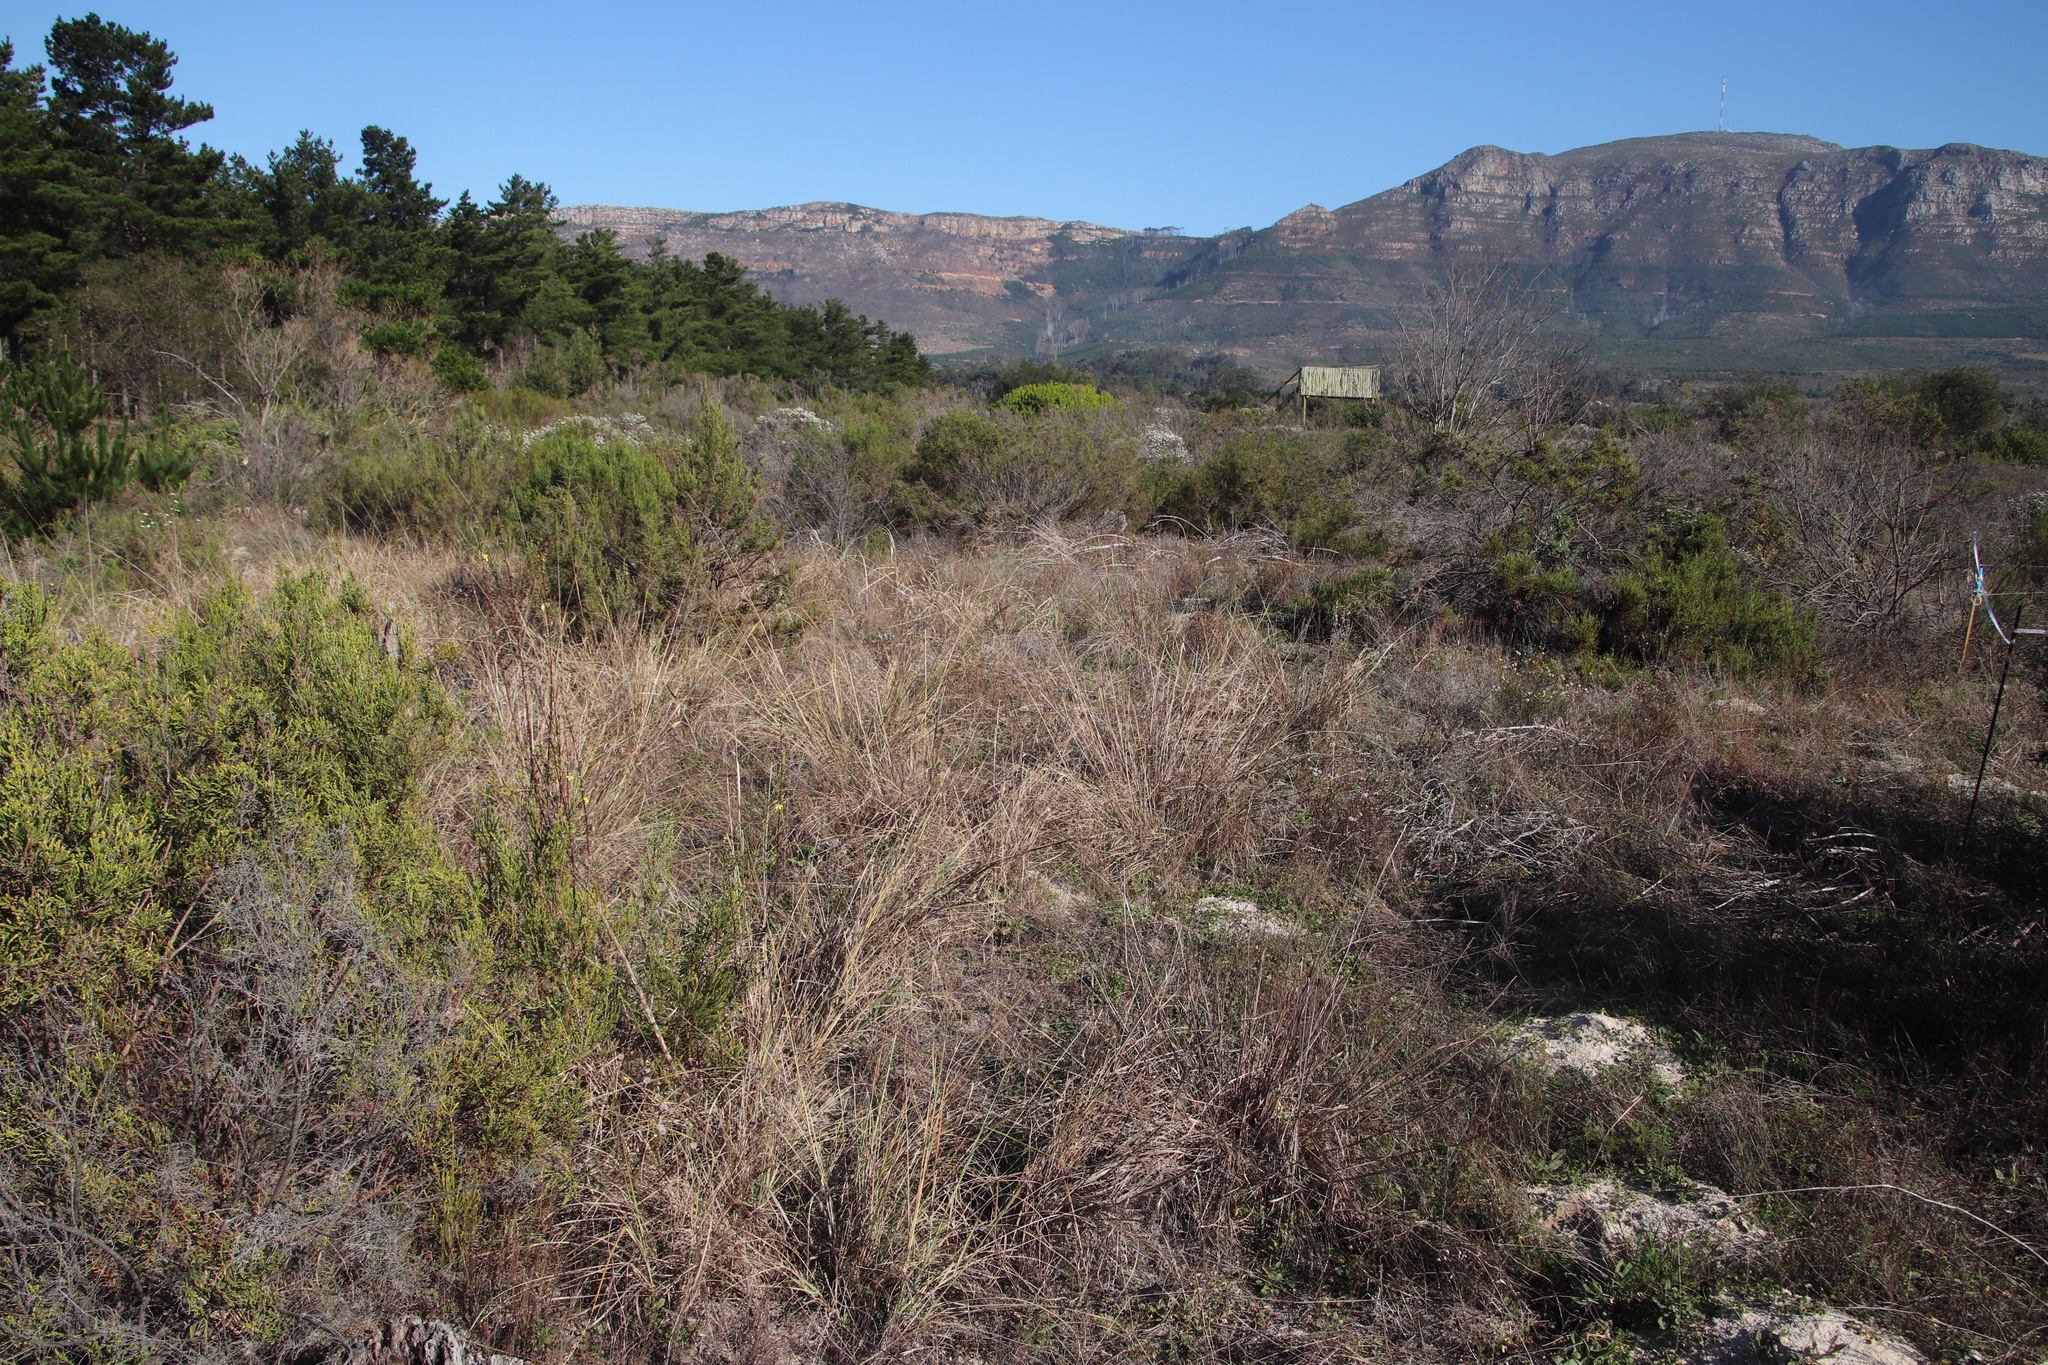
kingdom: Plantae
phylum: Tracheophyta
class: Liliopsida
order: Poales
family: Poaceae
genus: Eragrostis
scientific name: Eragrostis curvula
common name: African love-grass
